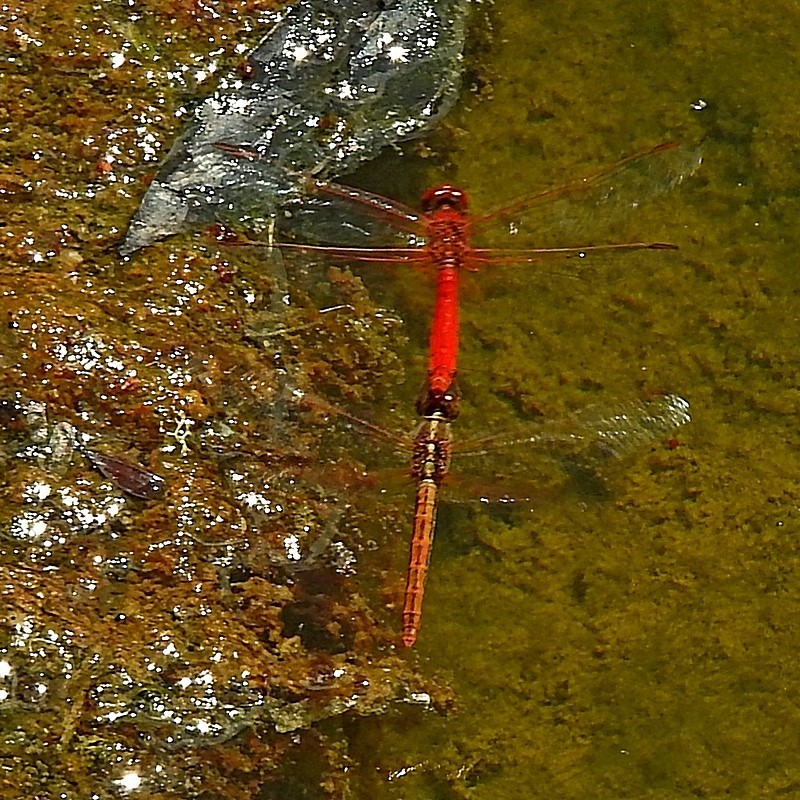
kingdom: Animalia
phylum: Arthropoda
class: Insecta
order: Odonata
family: Libellulidae
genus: Diplacodes
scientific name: Diplacodes haematodes
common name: Scarlet percher
